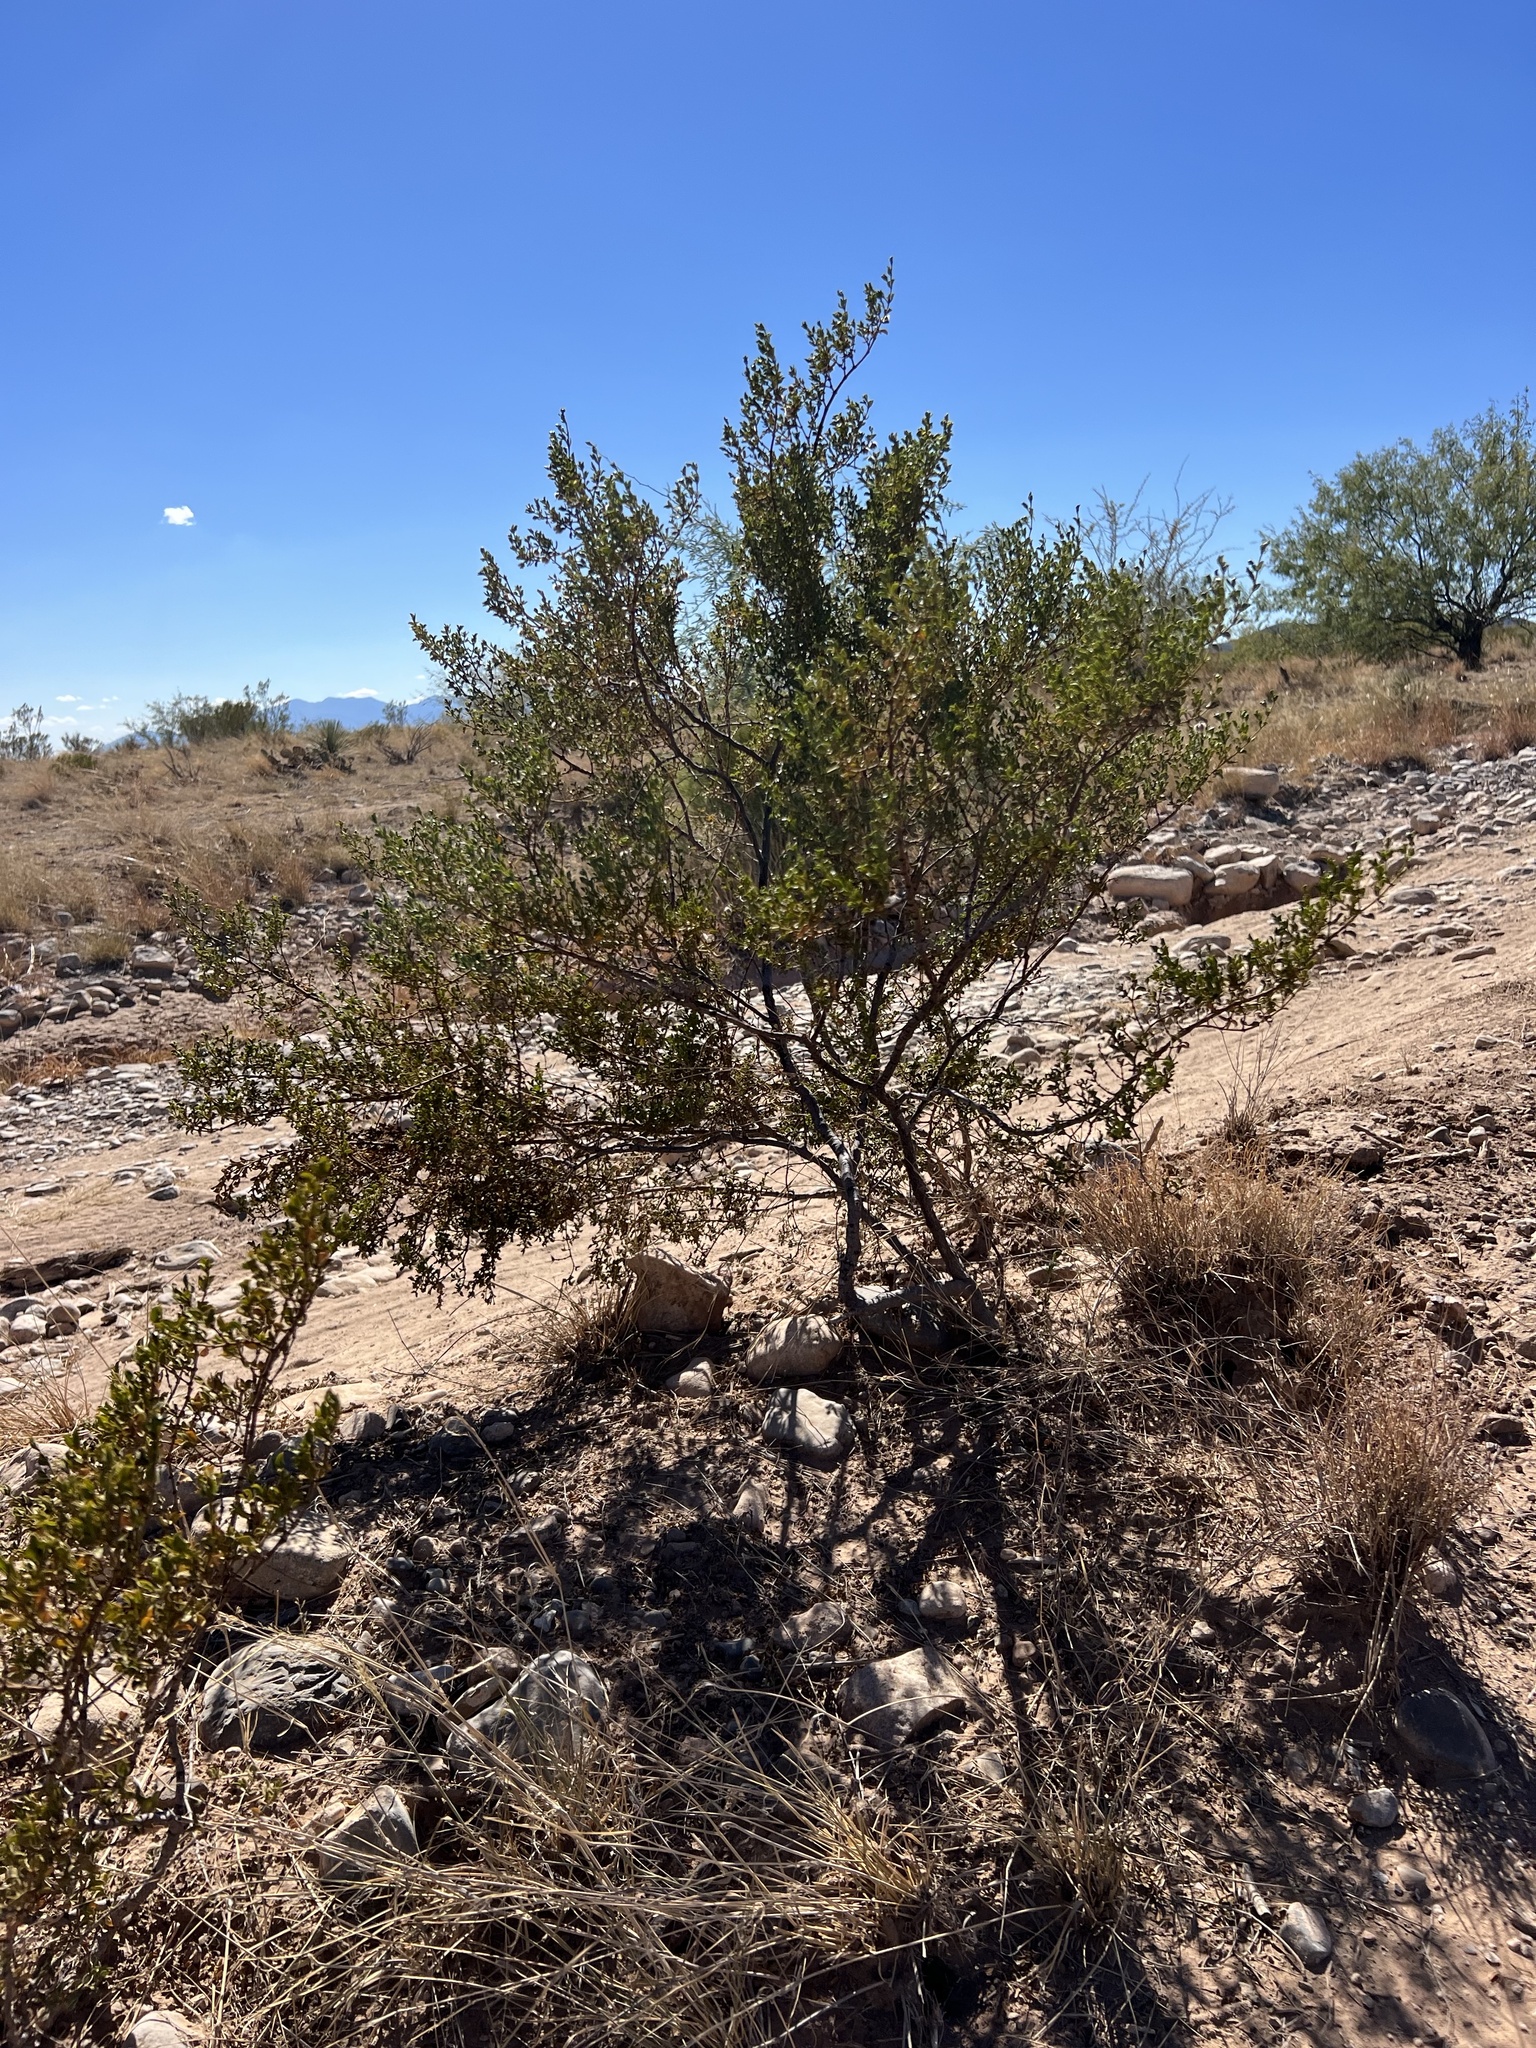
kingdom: Plantae
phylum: Tracheophyta
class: Magnoliopsida
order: Zygophyllales
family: Zygophyllaceae
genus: Larrea
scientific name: Larrea tridentata
